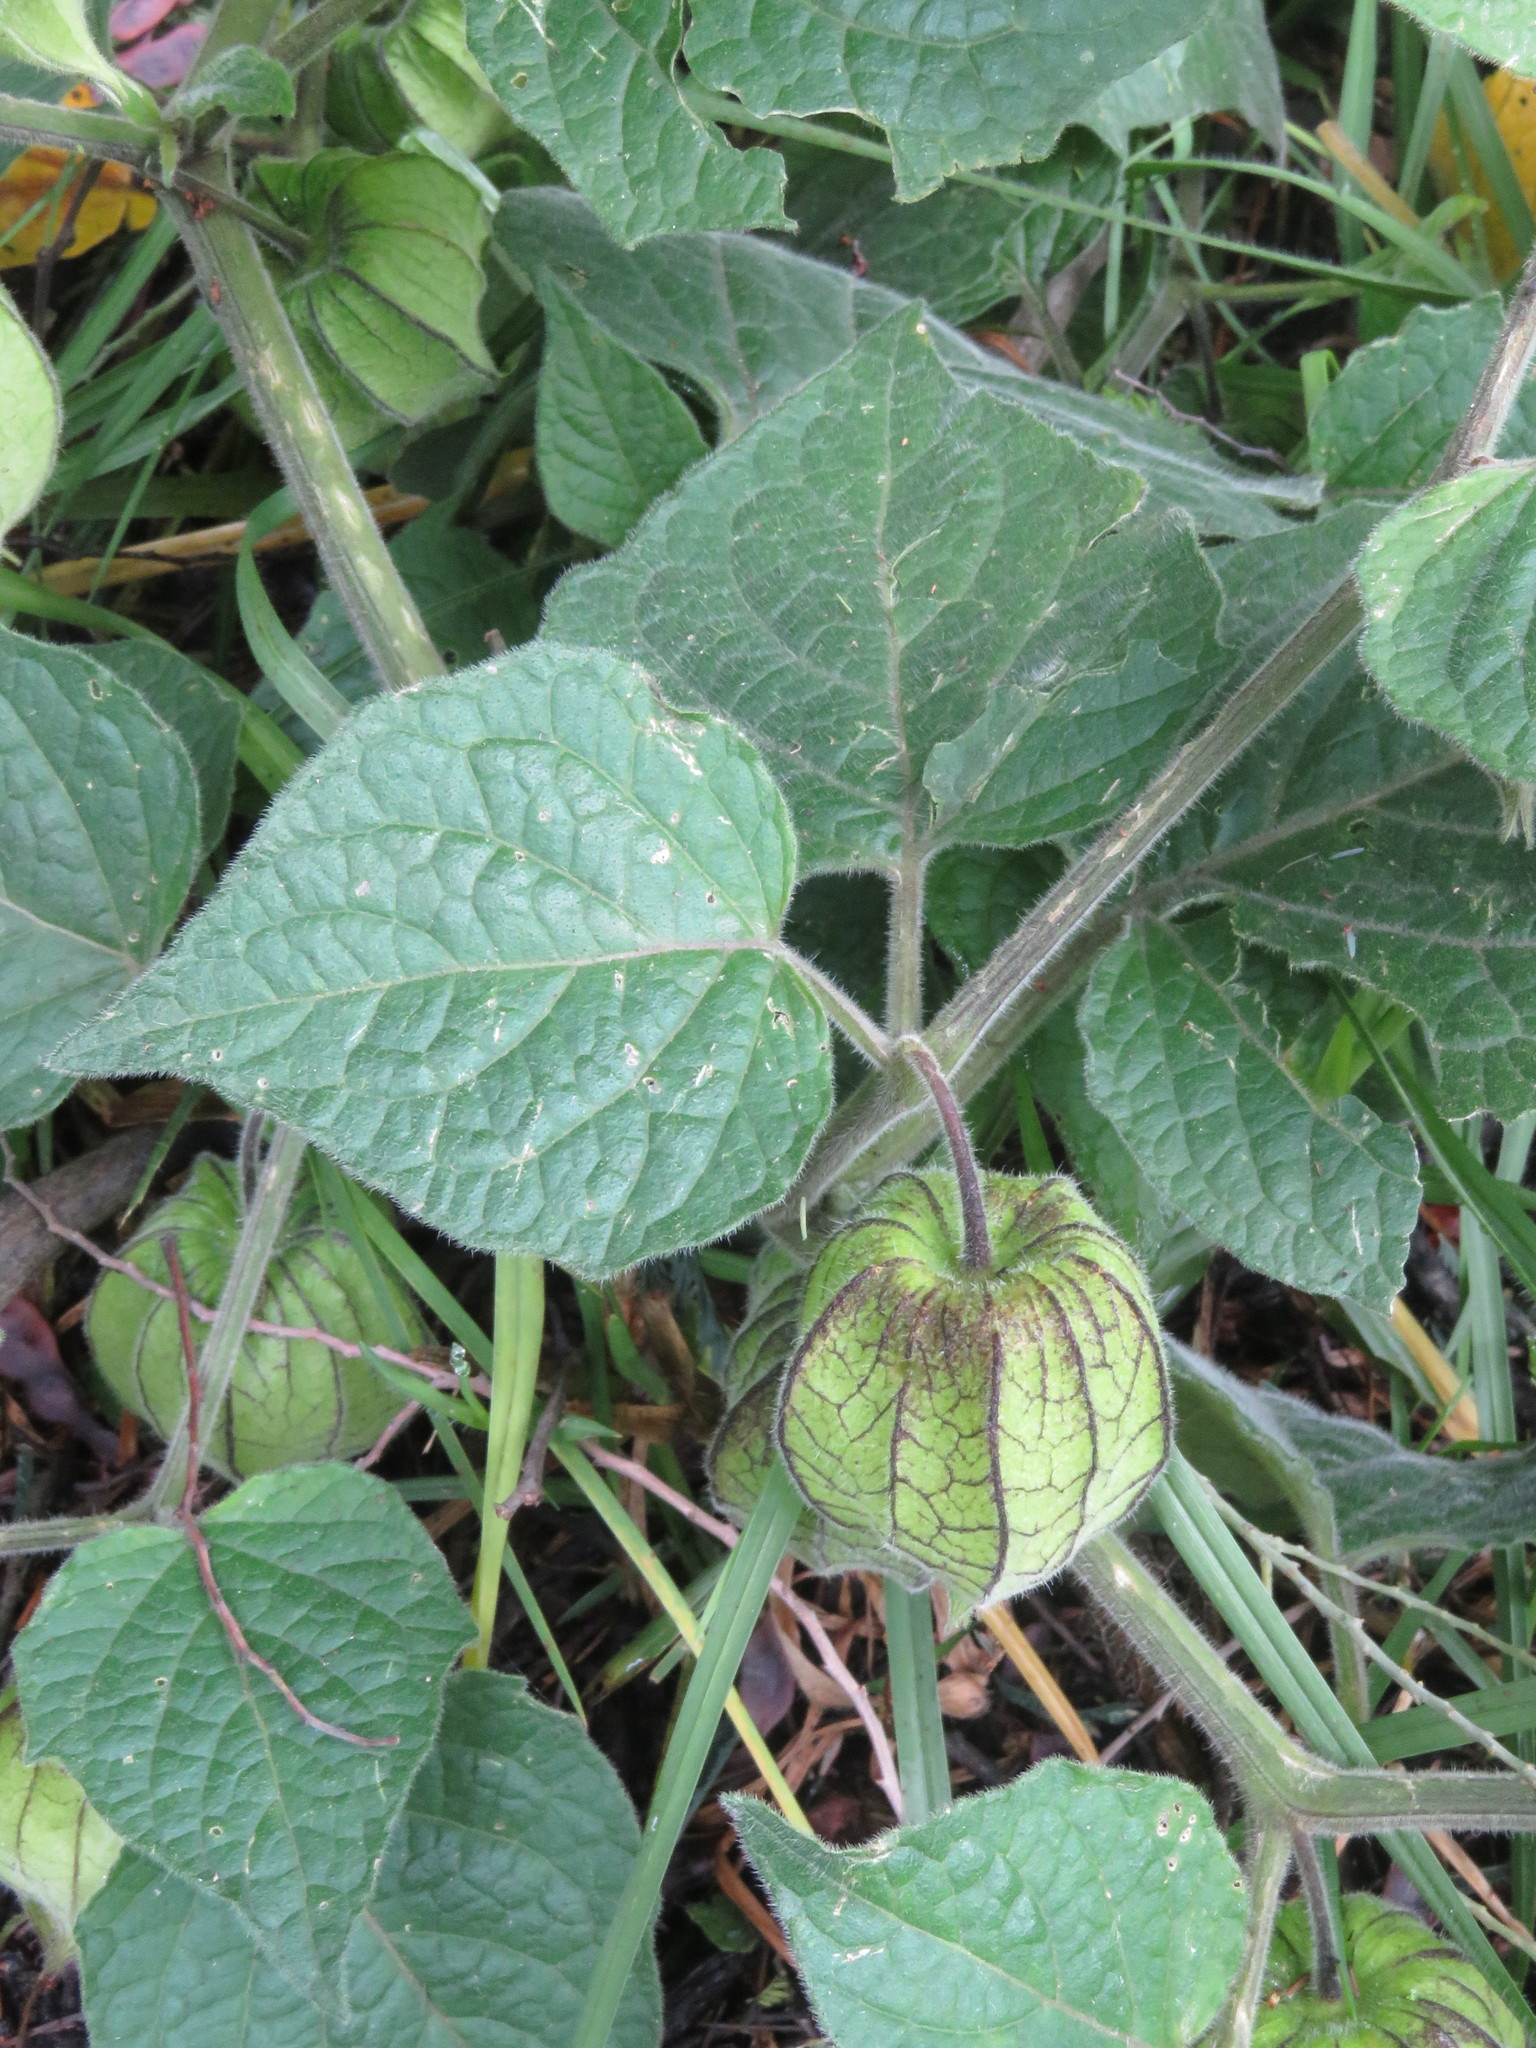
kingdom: Plantae
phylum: Tracheophyta
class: Magnoliopsida
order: Solanales
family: Solanaceae
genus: Physalis
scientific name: Physalis peruviana
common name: Cape-gooseberry
